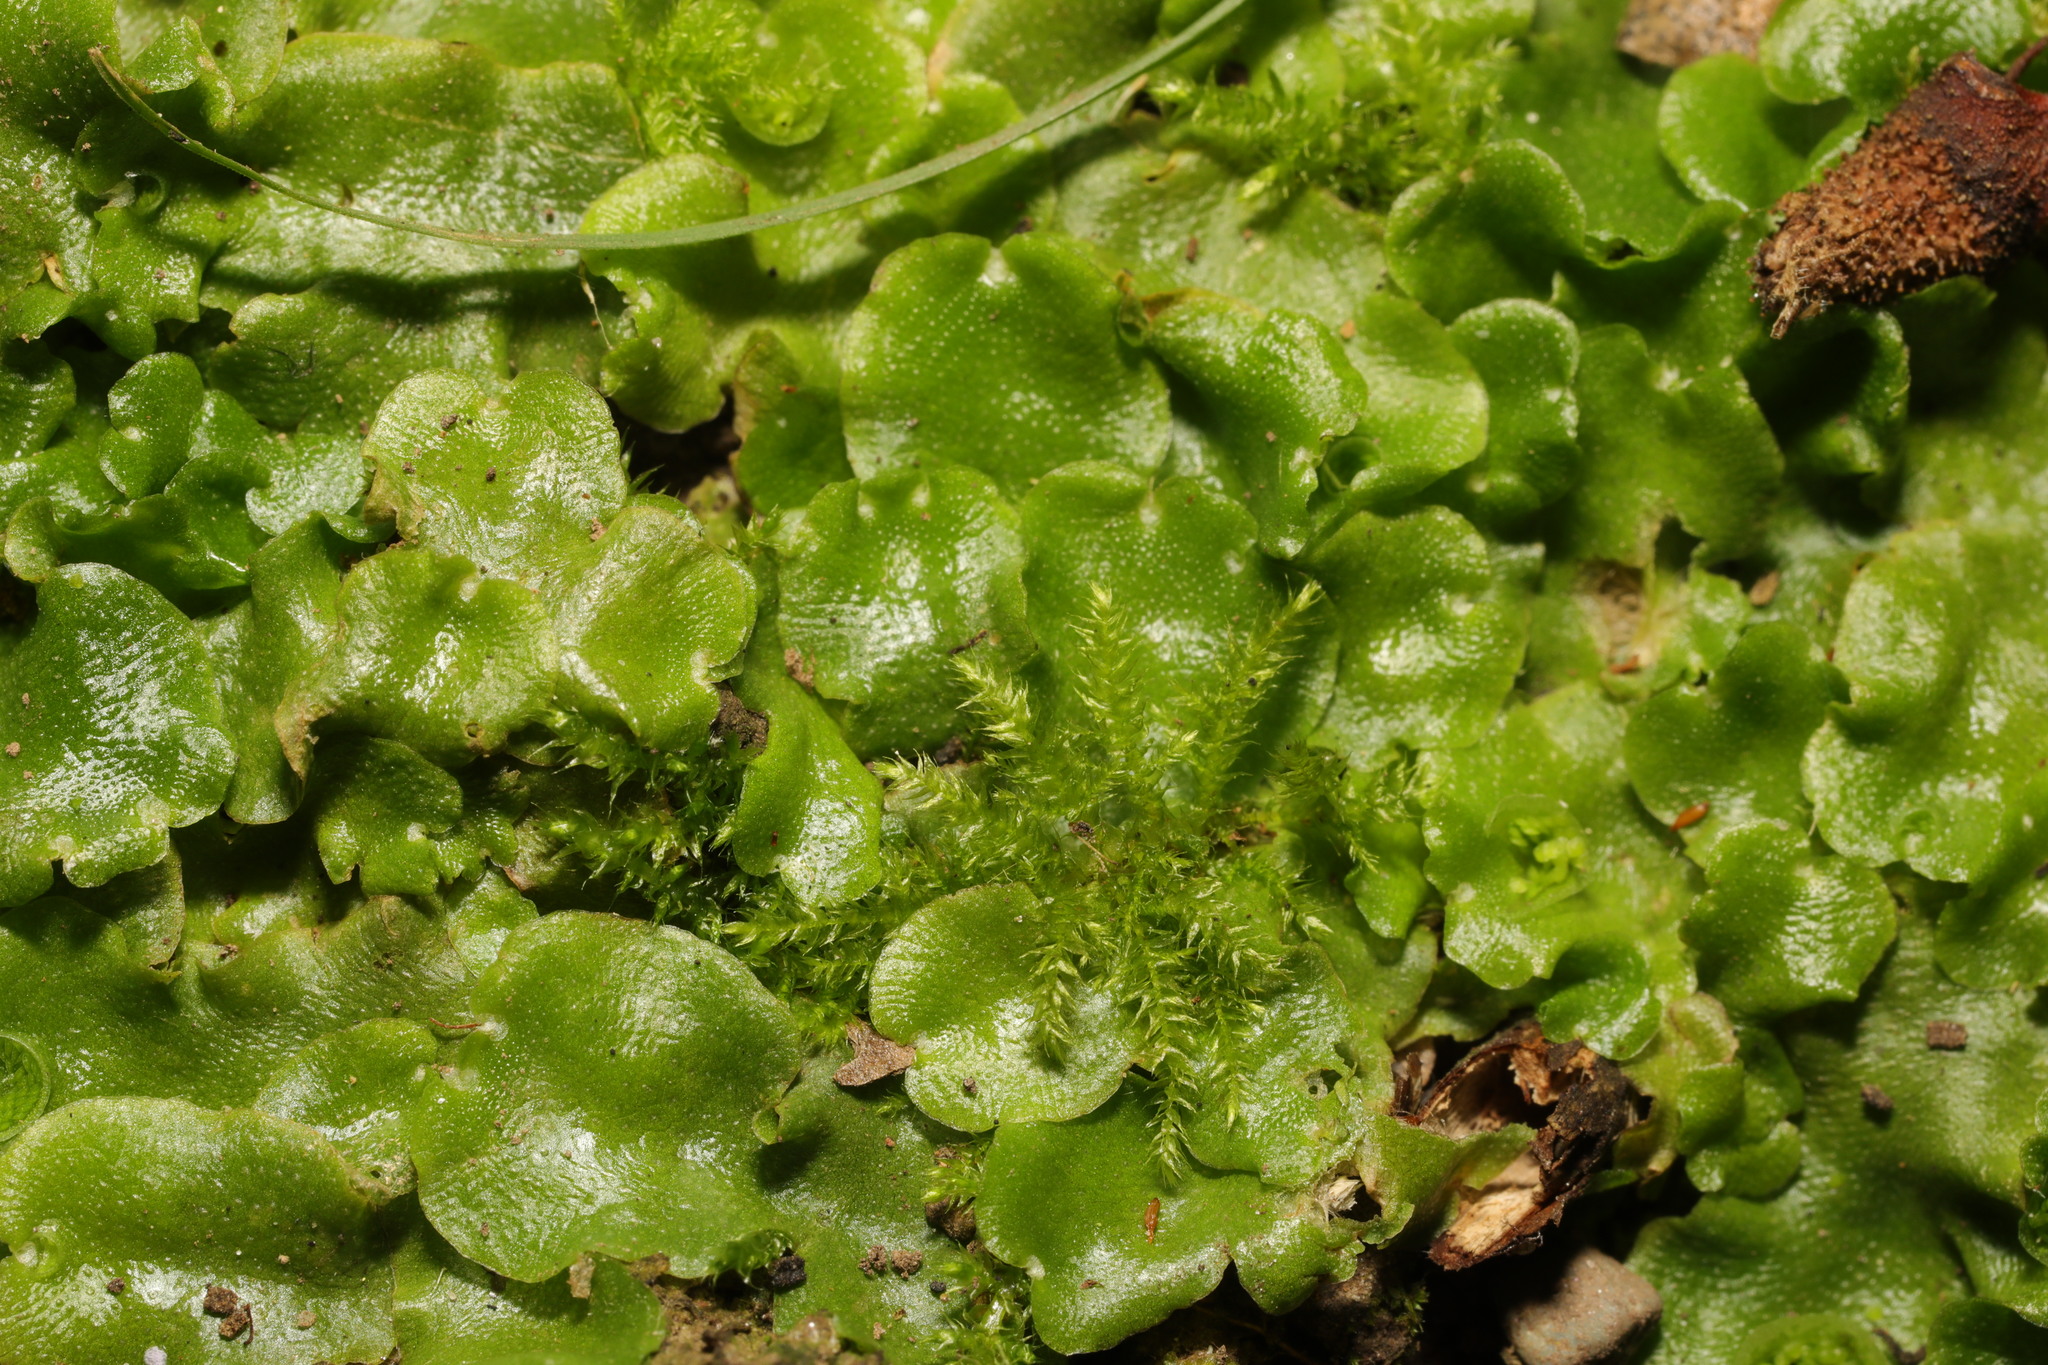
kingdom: Plantae
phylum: Marchantiophyta
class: Marchantiopsida
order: Lunulariales
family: Lunulariaceae
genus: Lunularia
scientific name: Lunularia cruciata
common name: Crescent-cup liverwort
